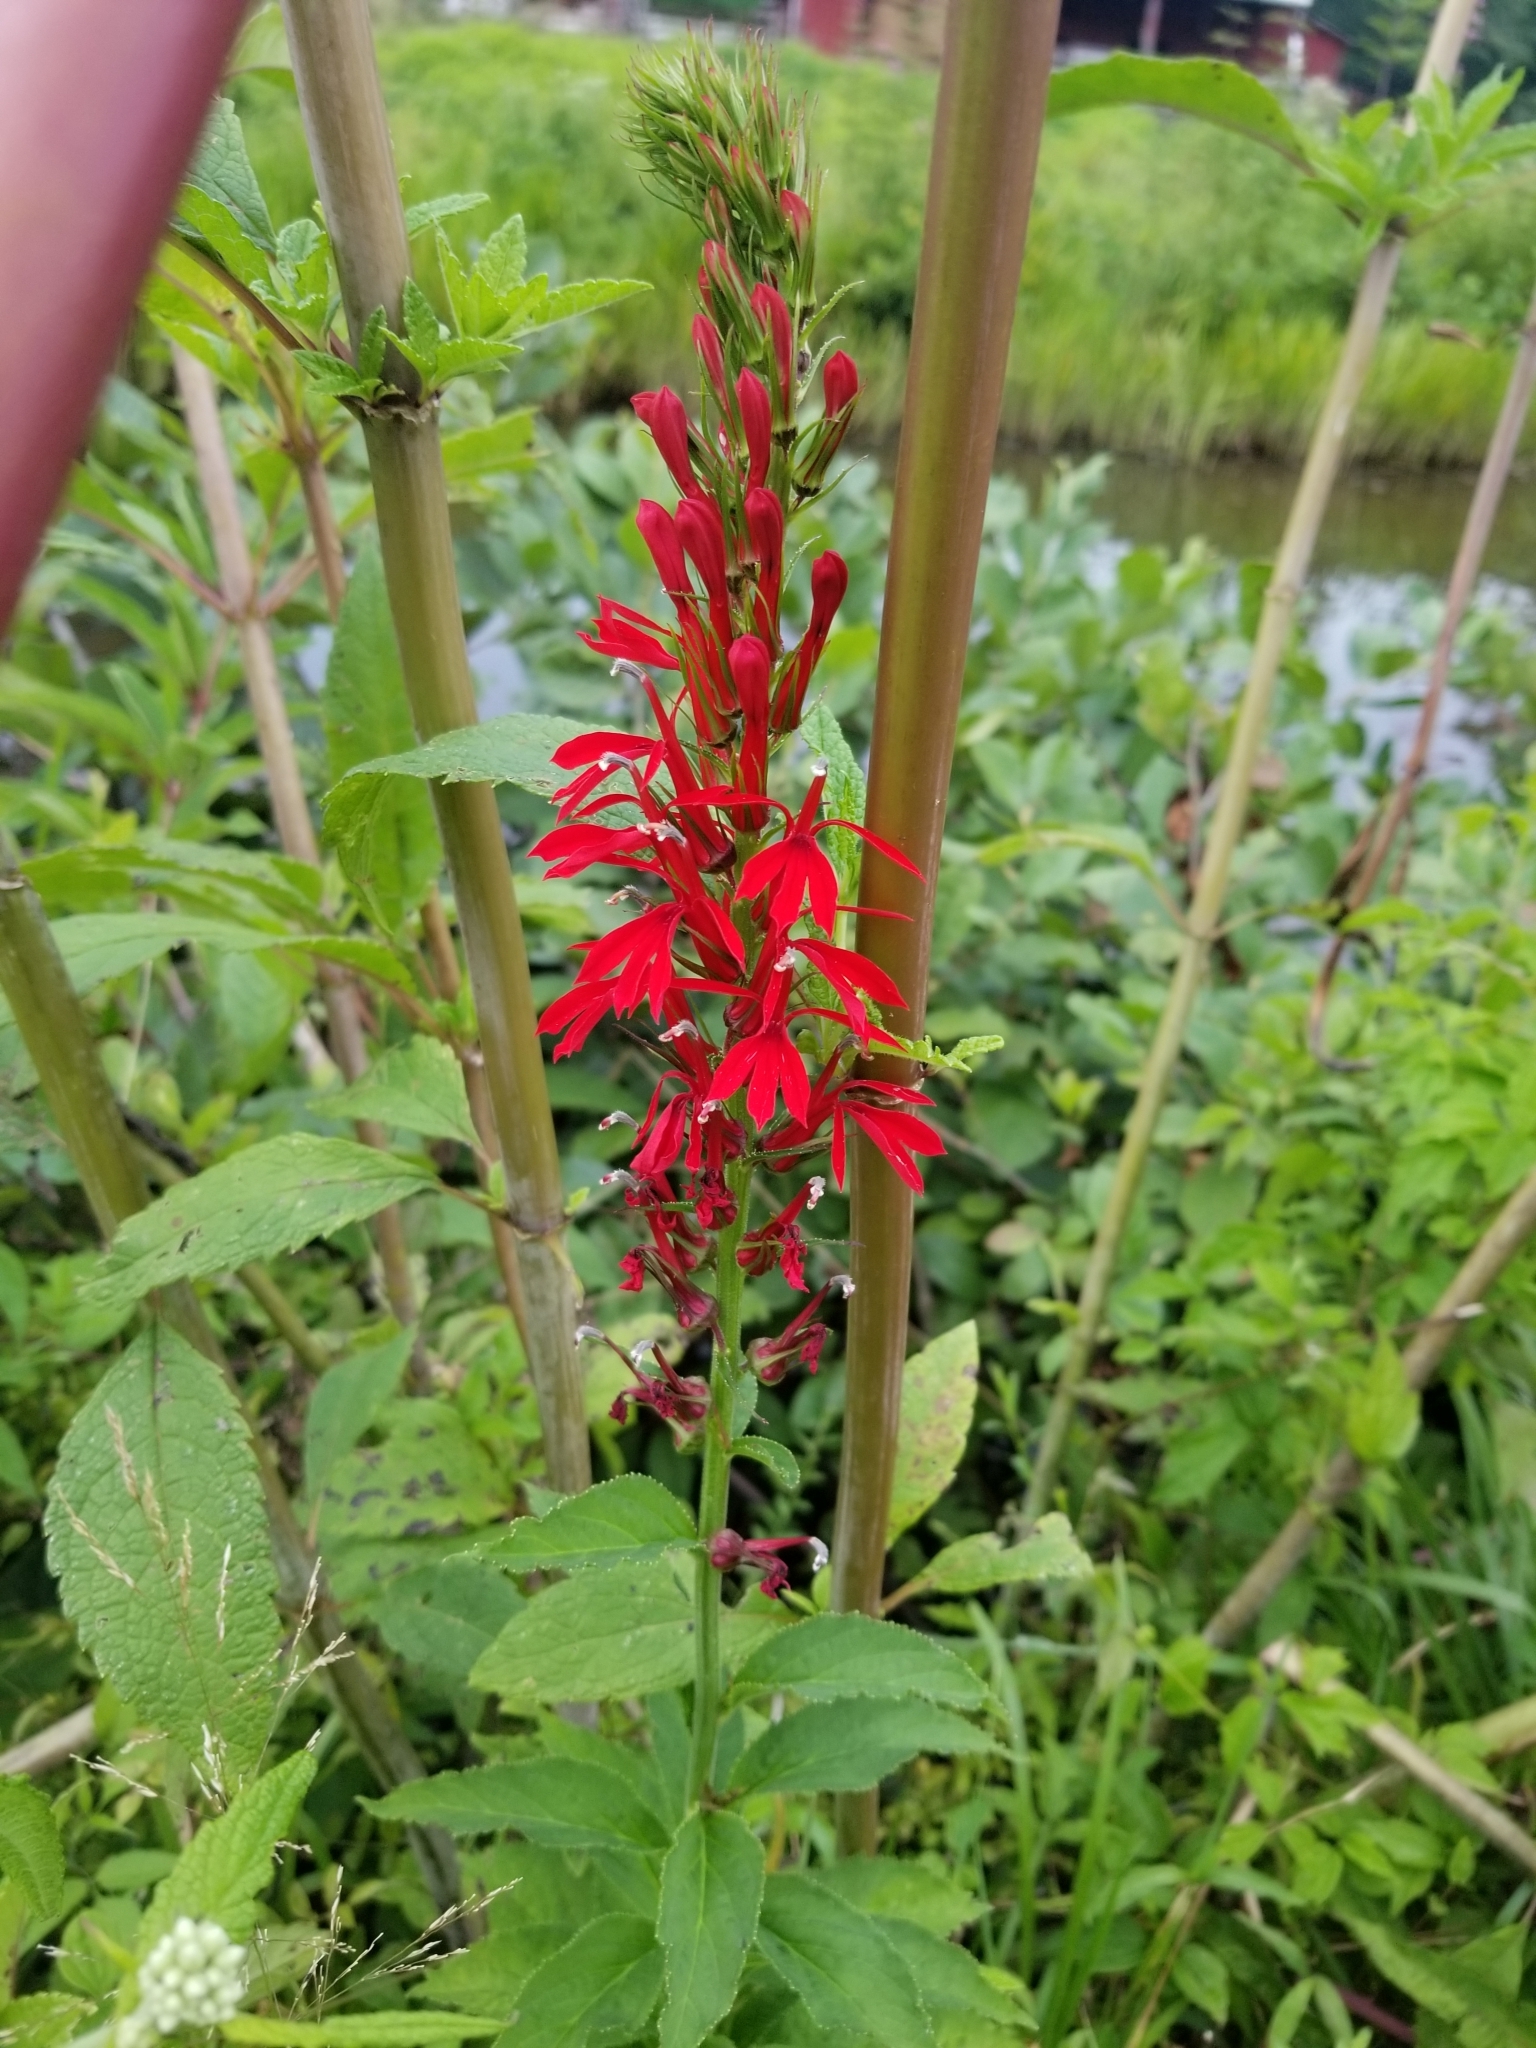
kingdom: Plantae
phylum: Tracheophyta
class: Magnoliopsida
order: Asterales
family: Campanulaceae
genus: Lobelia
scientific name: Lobelia cardinalis
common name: Cardinal flower
